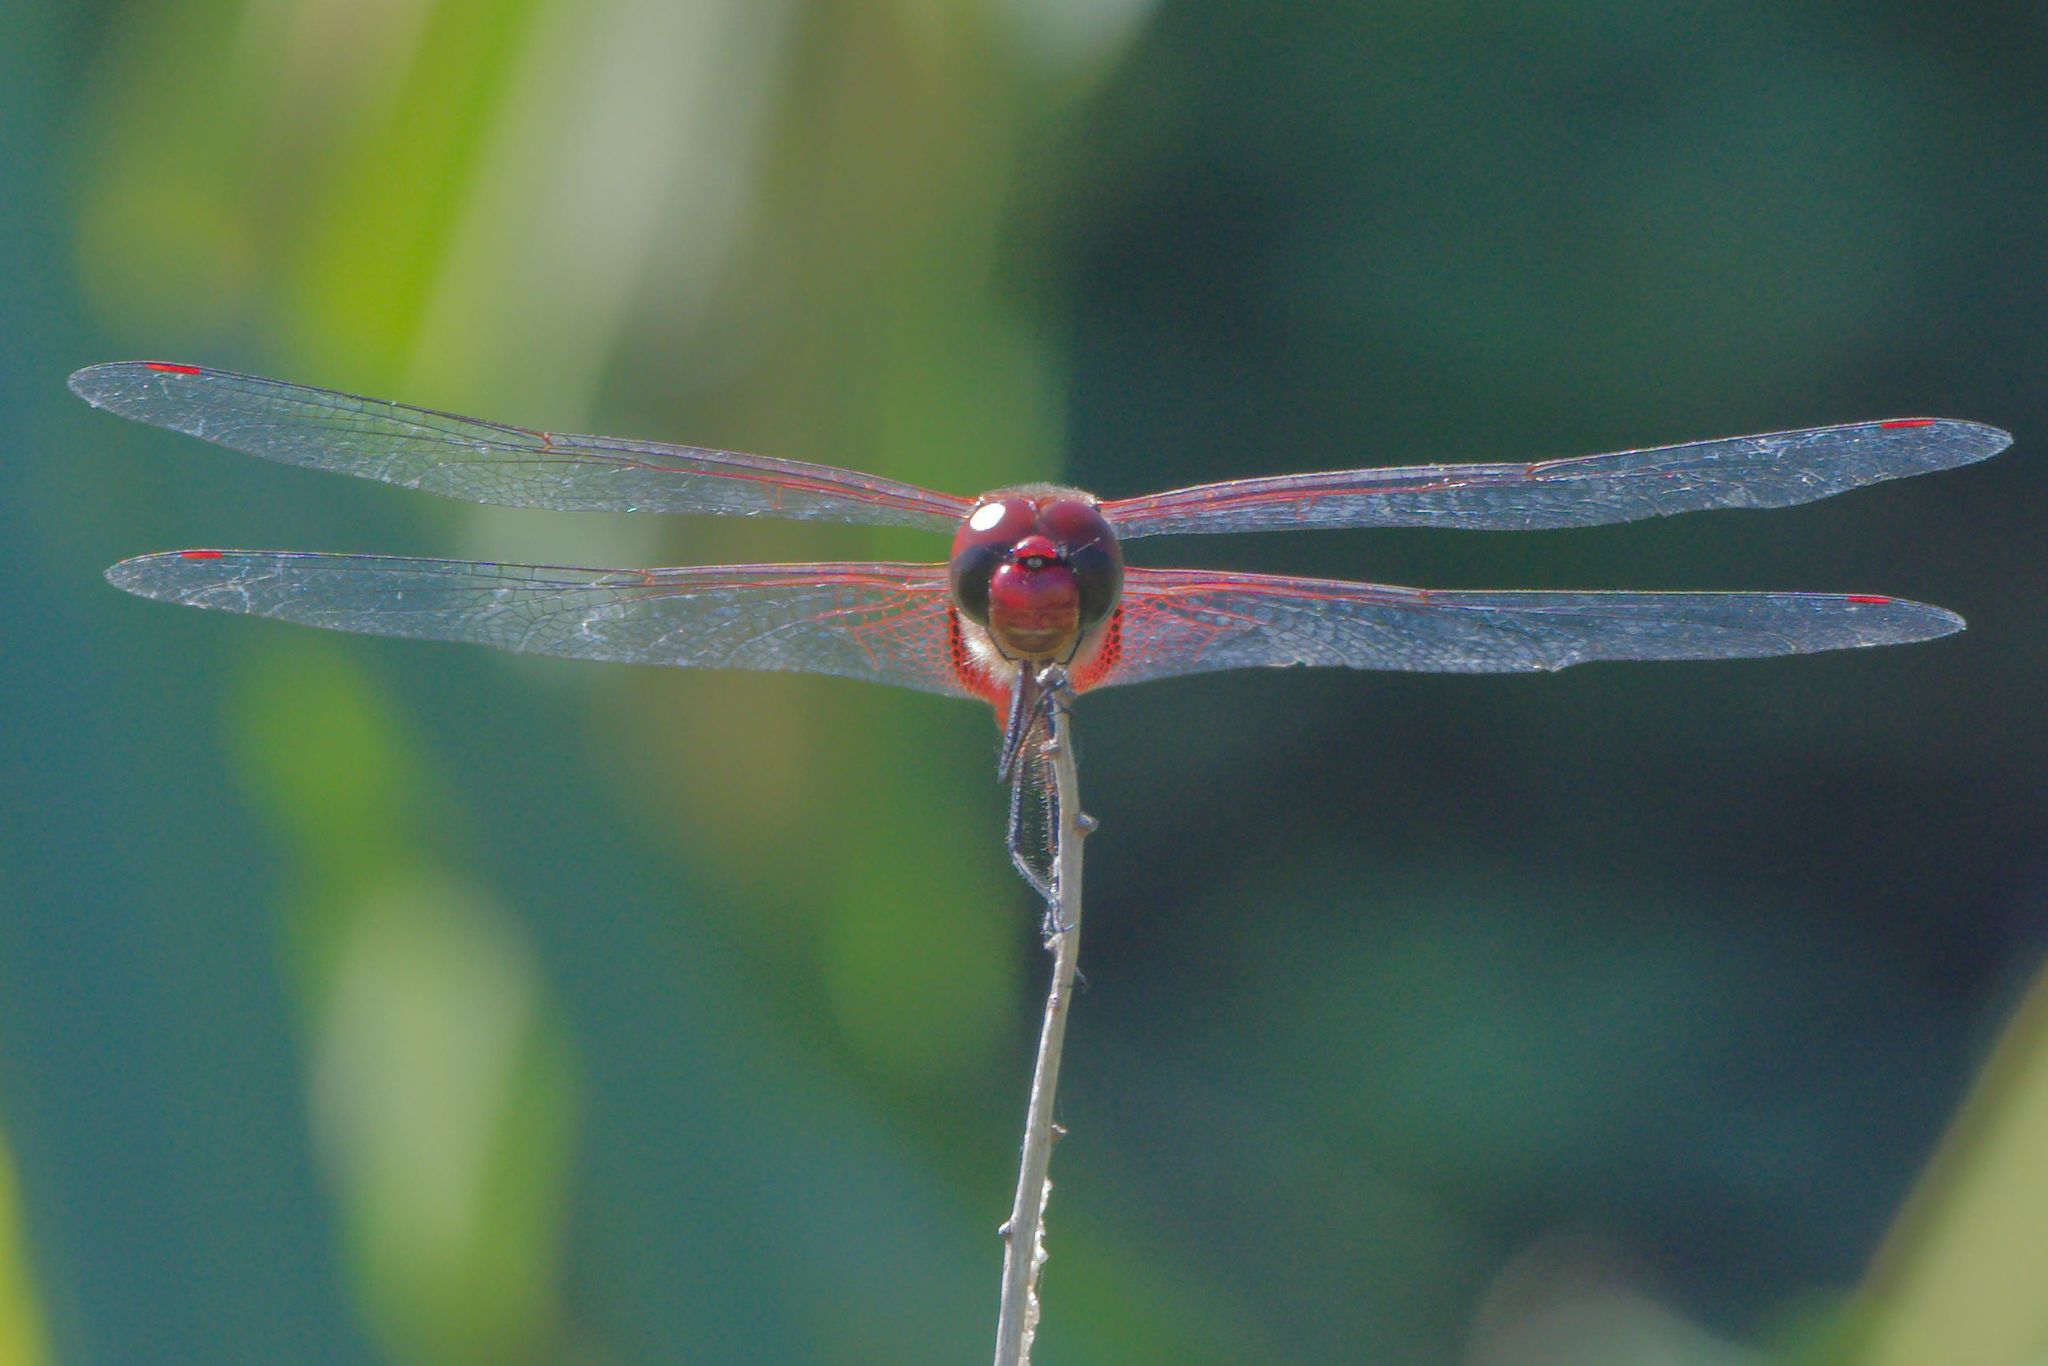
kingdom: Animalia
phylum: Arthropoda
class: Insecta
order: Odonata
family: Libellulidae
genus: Tramea
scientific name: Tramea abdominalis
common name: Vermilion saddlebags
